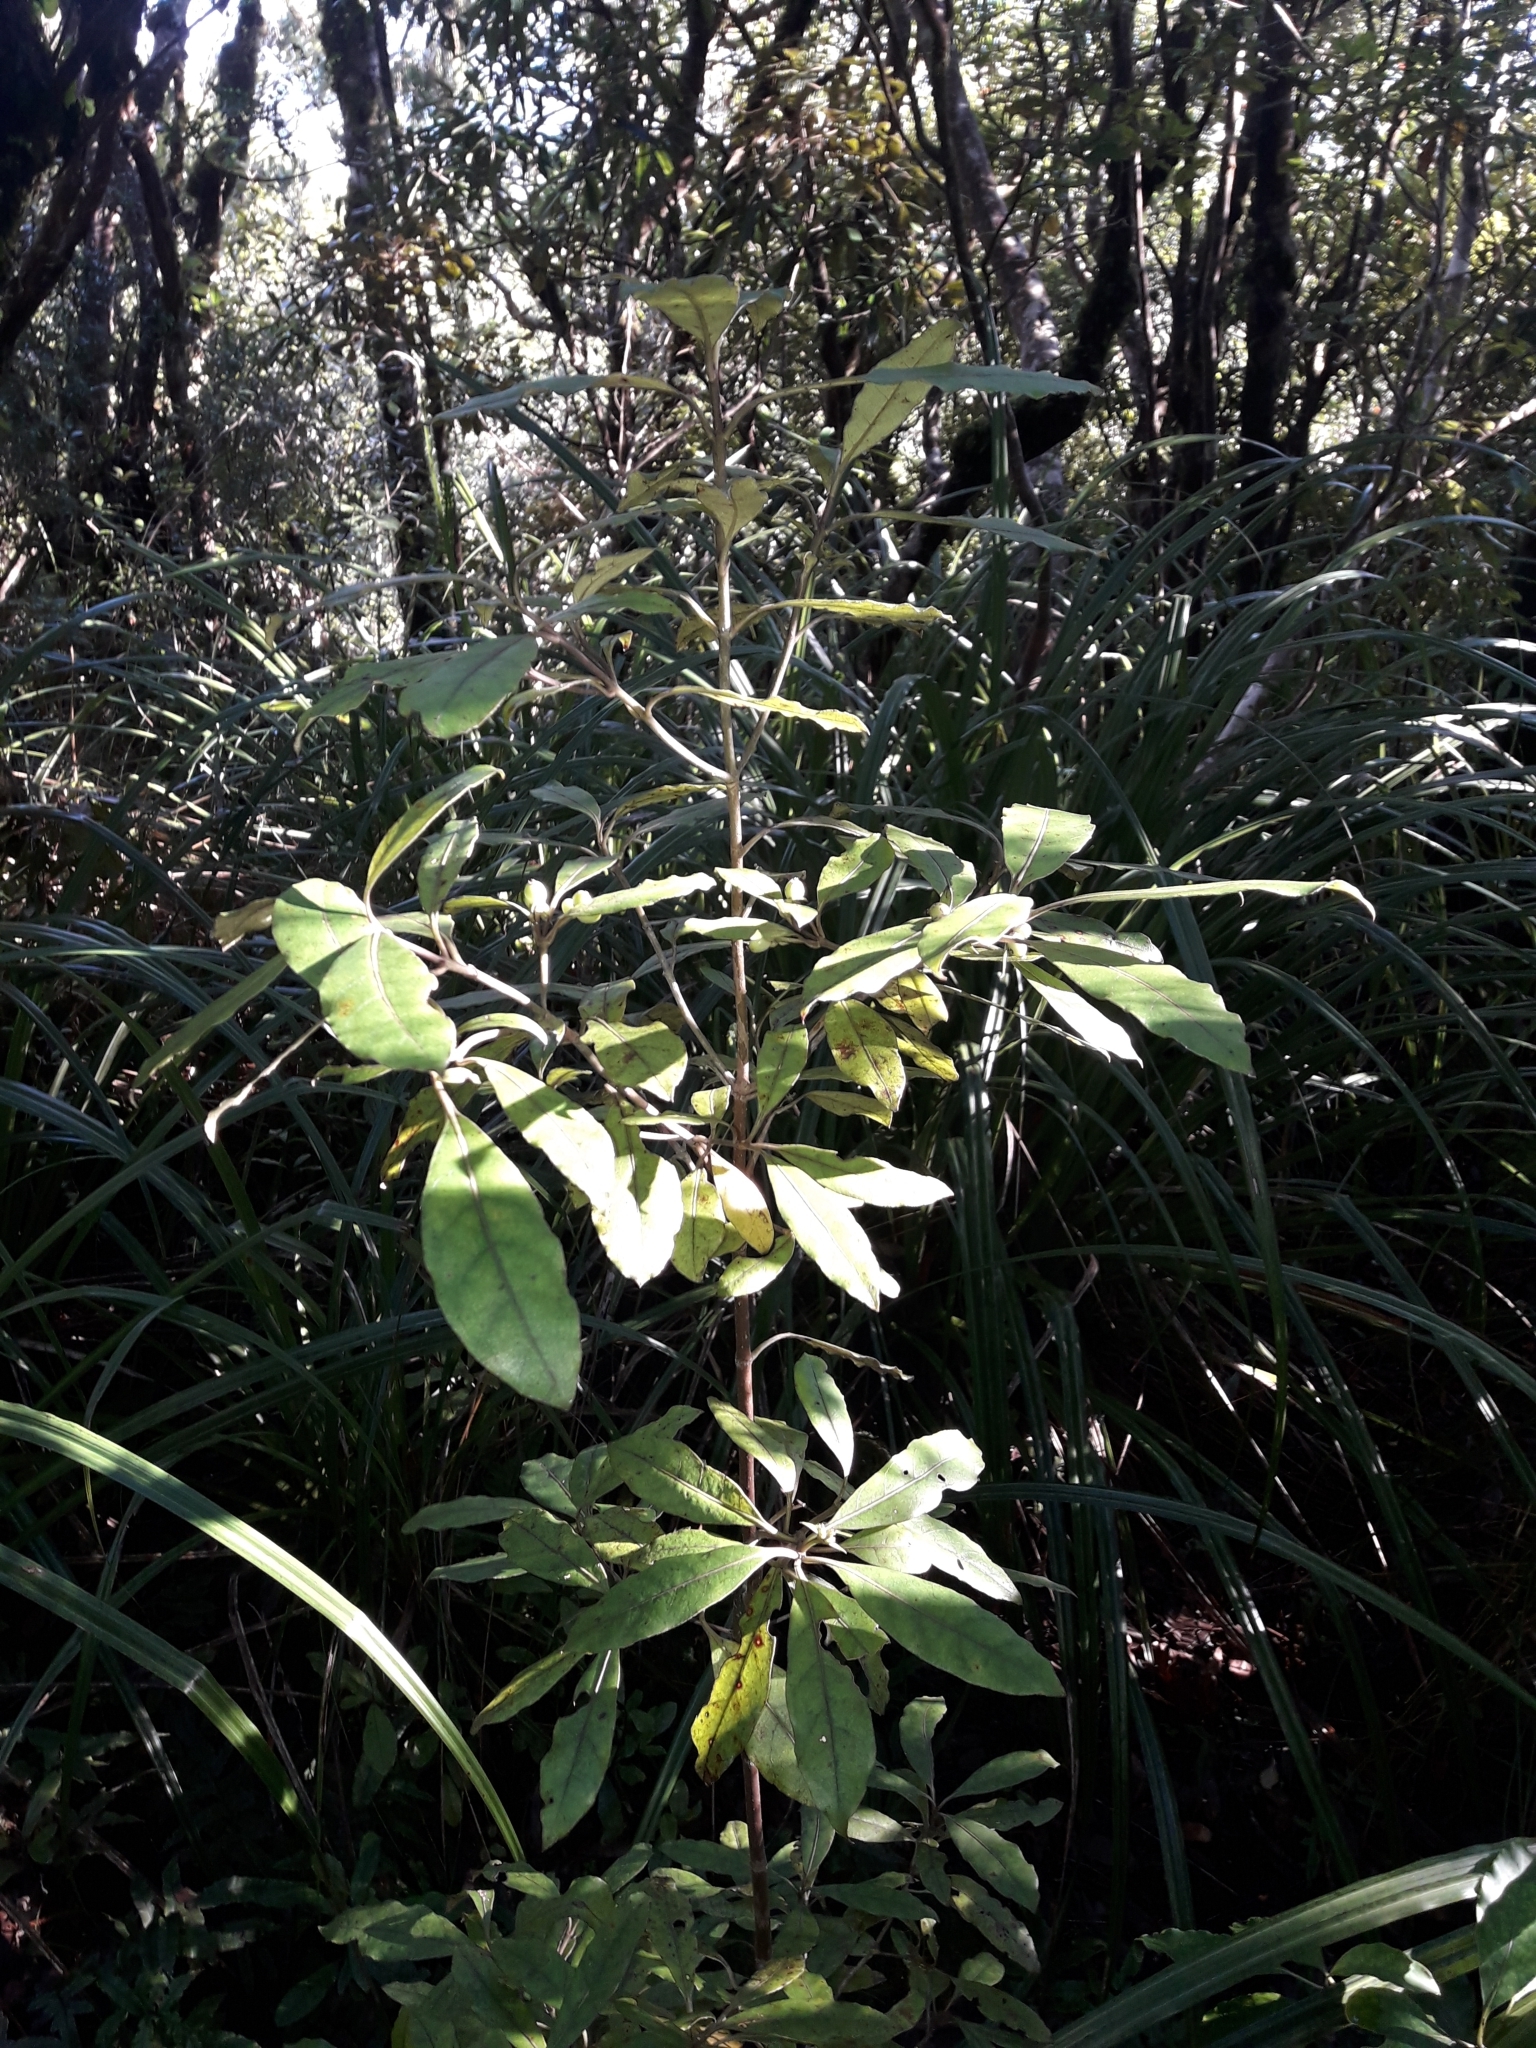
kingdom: Plantae
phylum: Tracheophyta
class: Magnoliopsida
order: Gentianales
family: Rubiaceae
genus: Coprosma
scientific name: Coprosma dodonaeifolia
